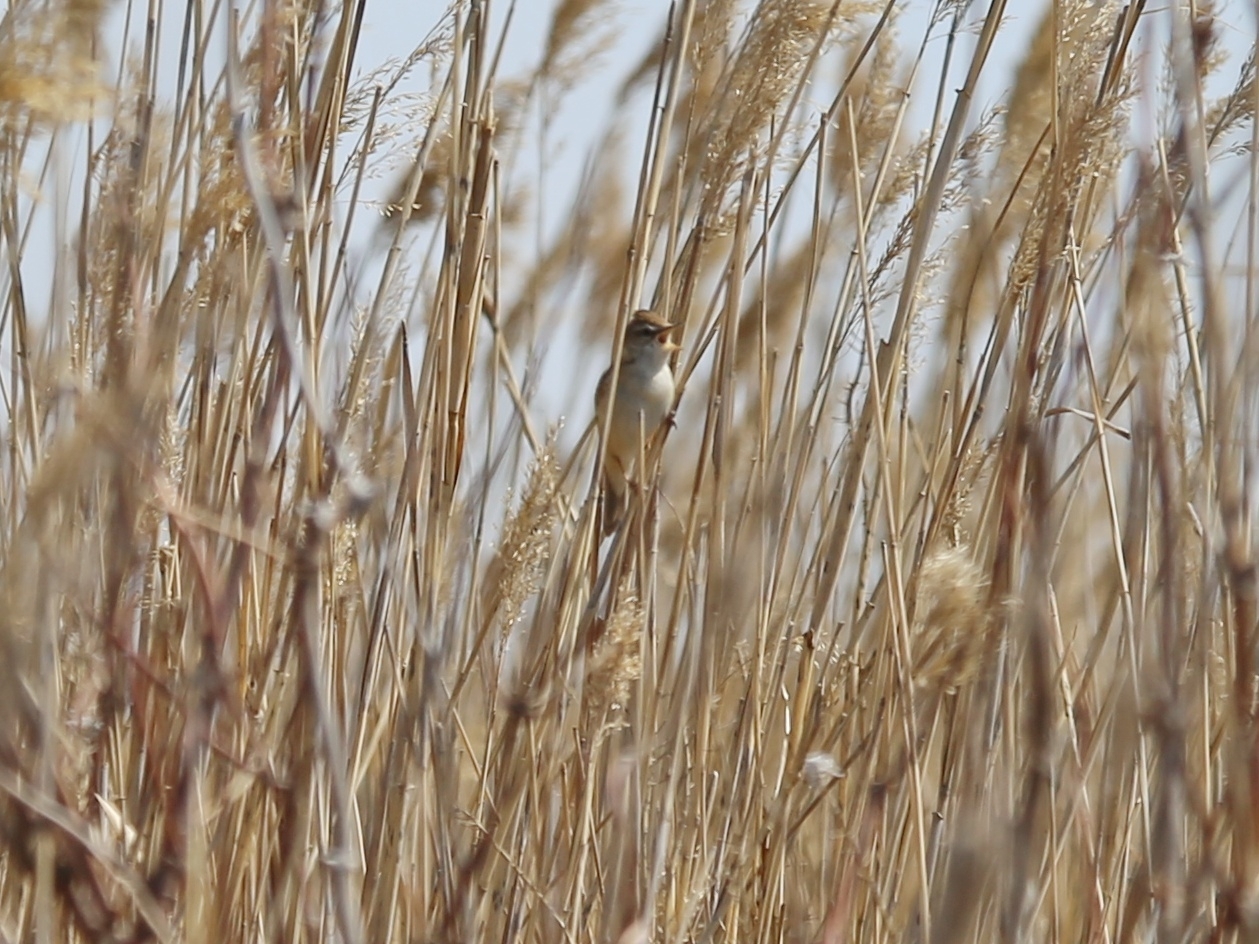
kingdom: Animalia
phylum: Chordata
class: Aves
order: Passeriformes
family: Acrocephalidae
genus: Acrocephalus
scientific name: Acrocephalus agricola
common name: Paddyfield warbler
